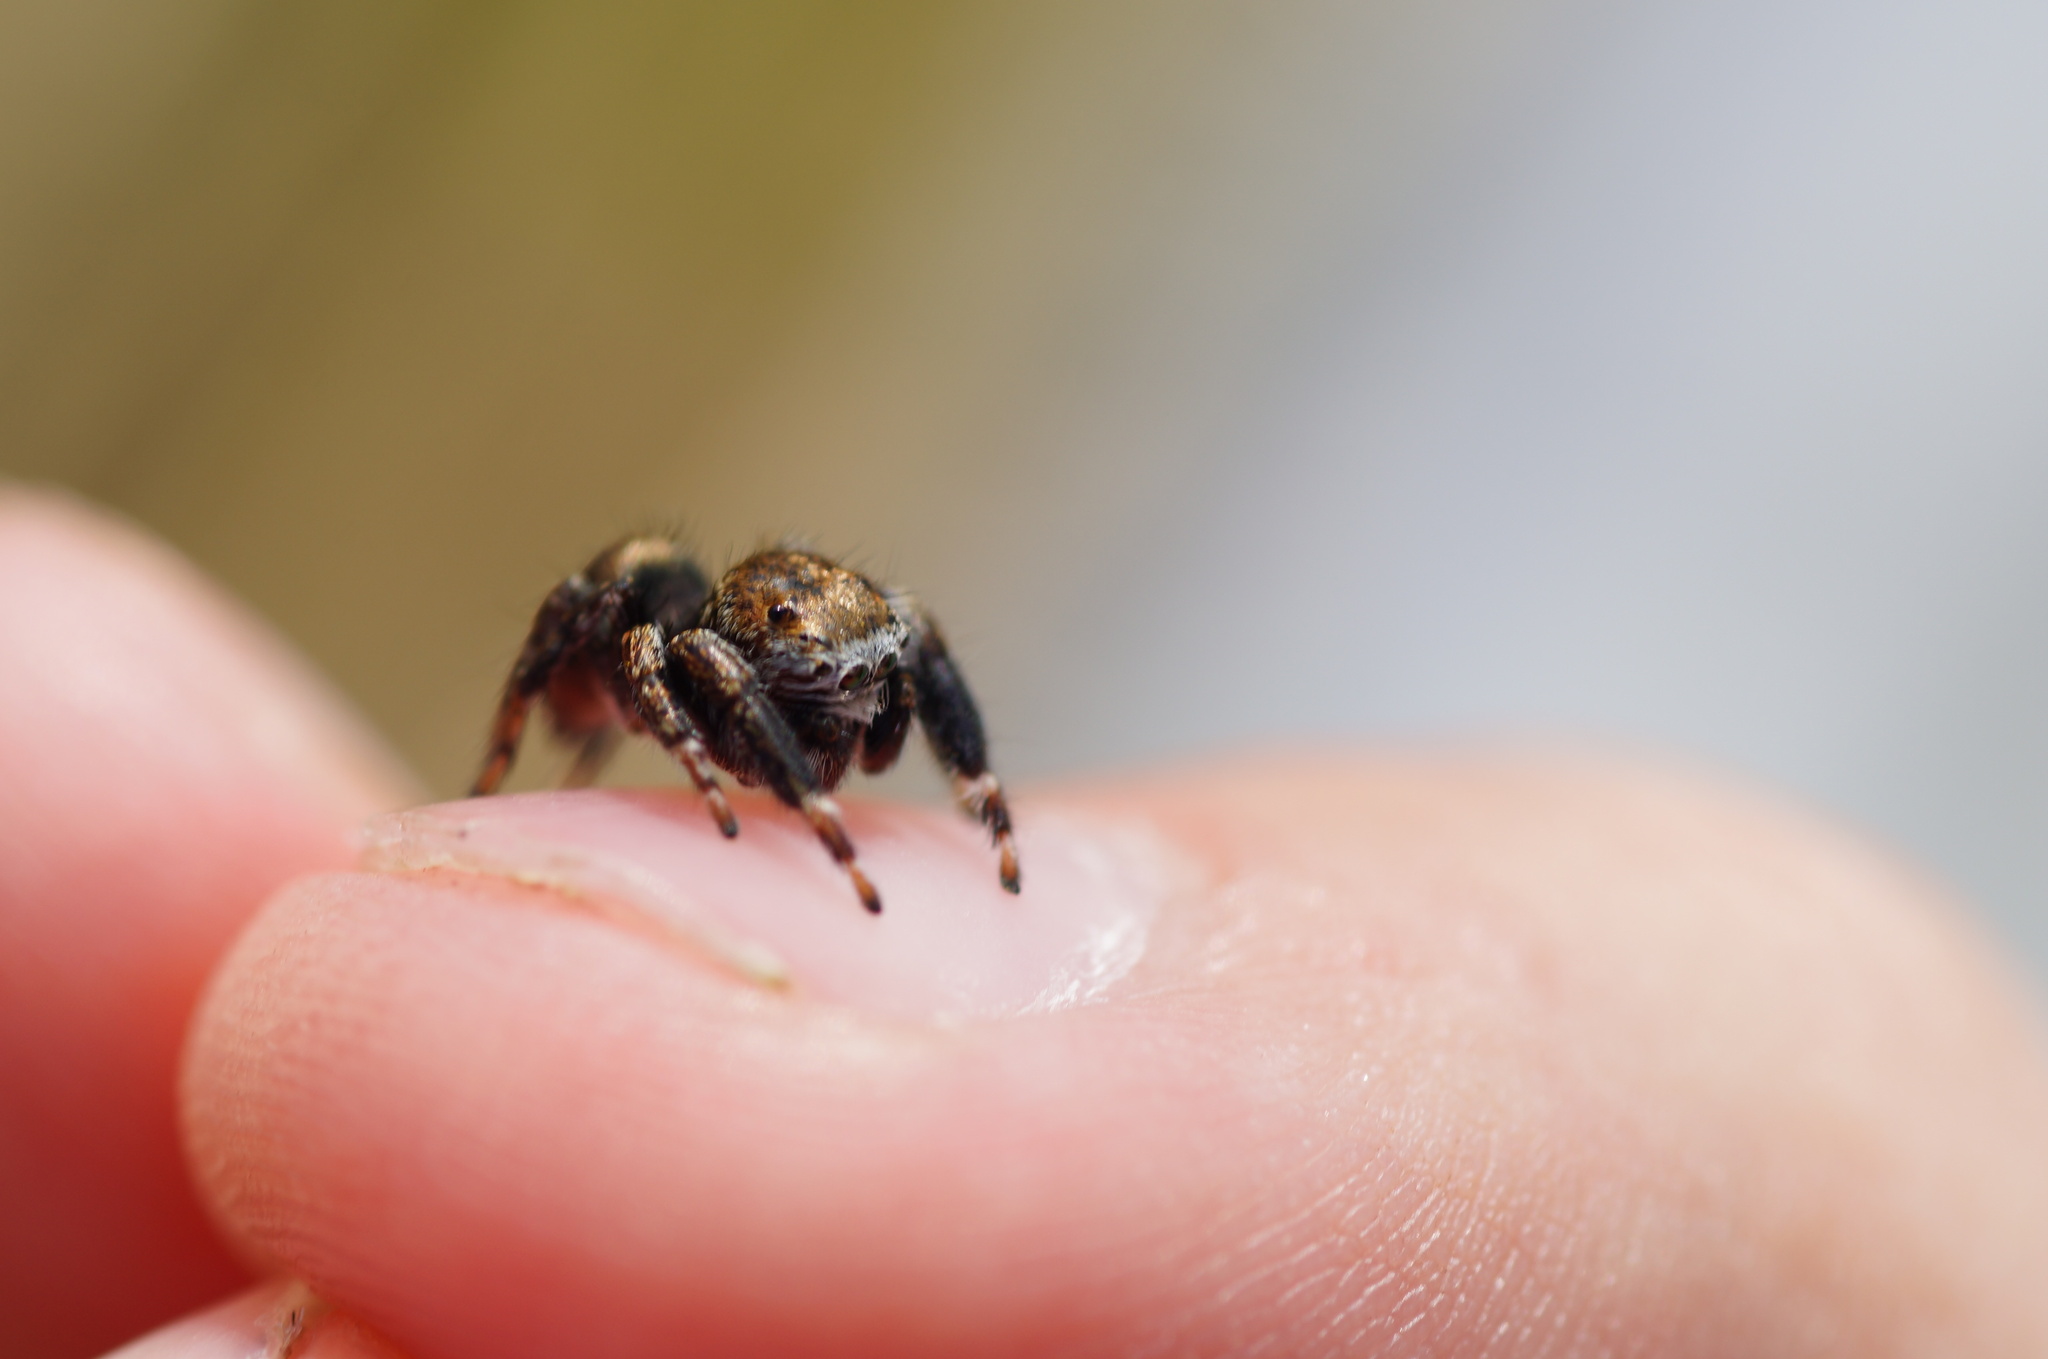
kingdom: Animalia
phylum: Arthropoda
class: Arachnida
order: Araneae
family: Salticidae
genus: Evarcha
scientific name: Evarcha arcuata
